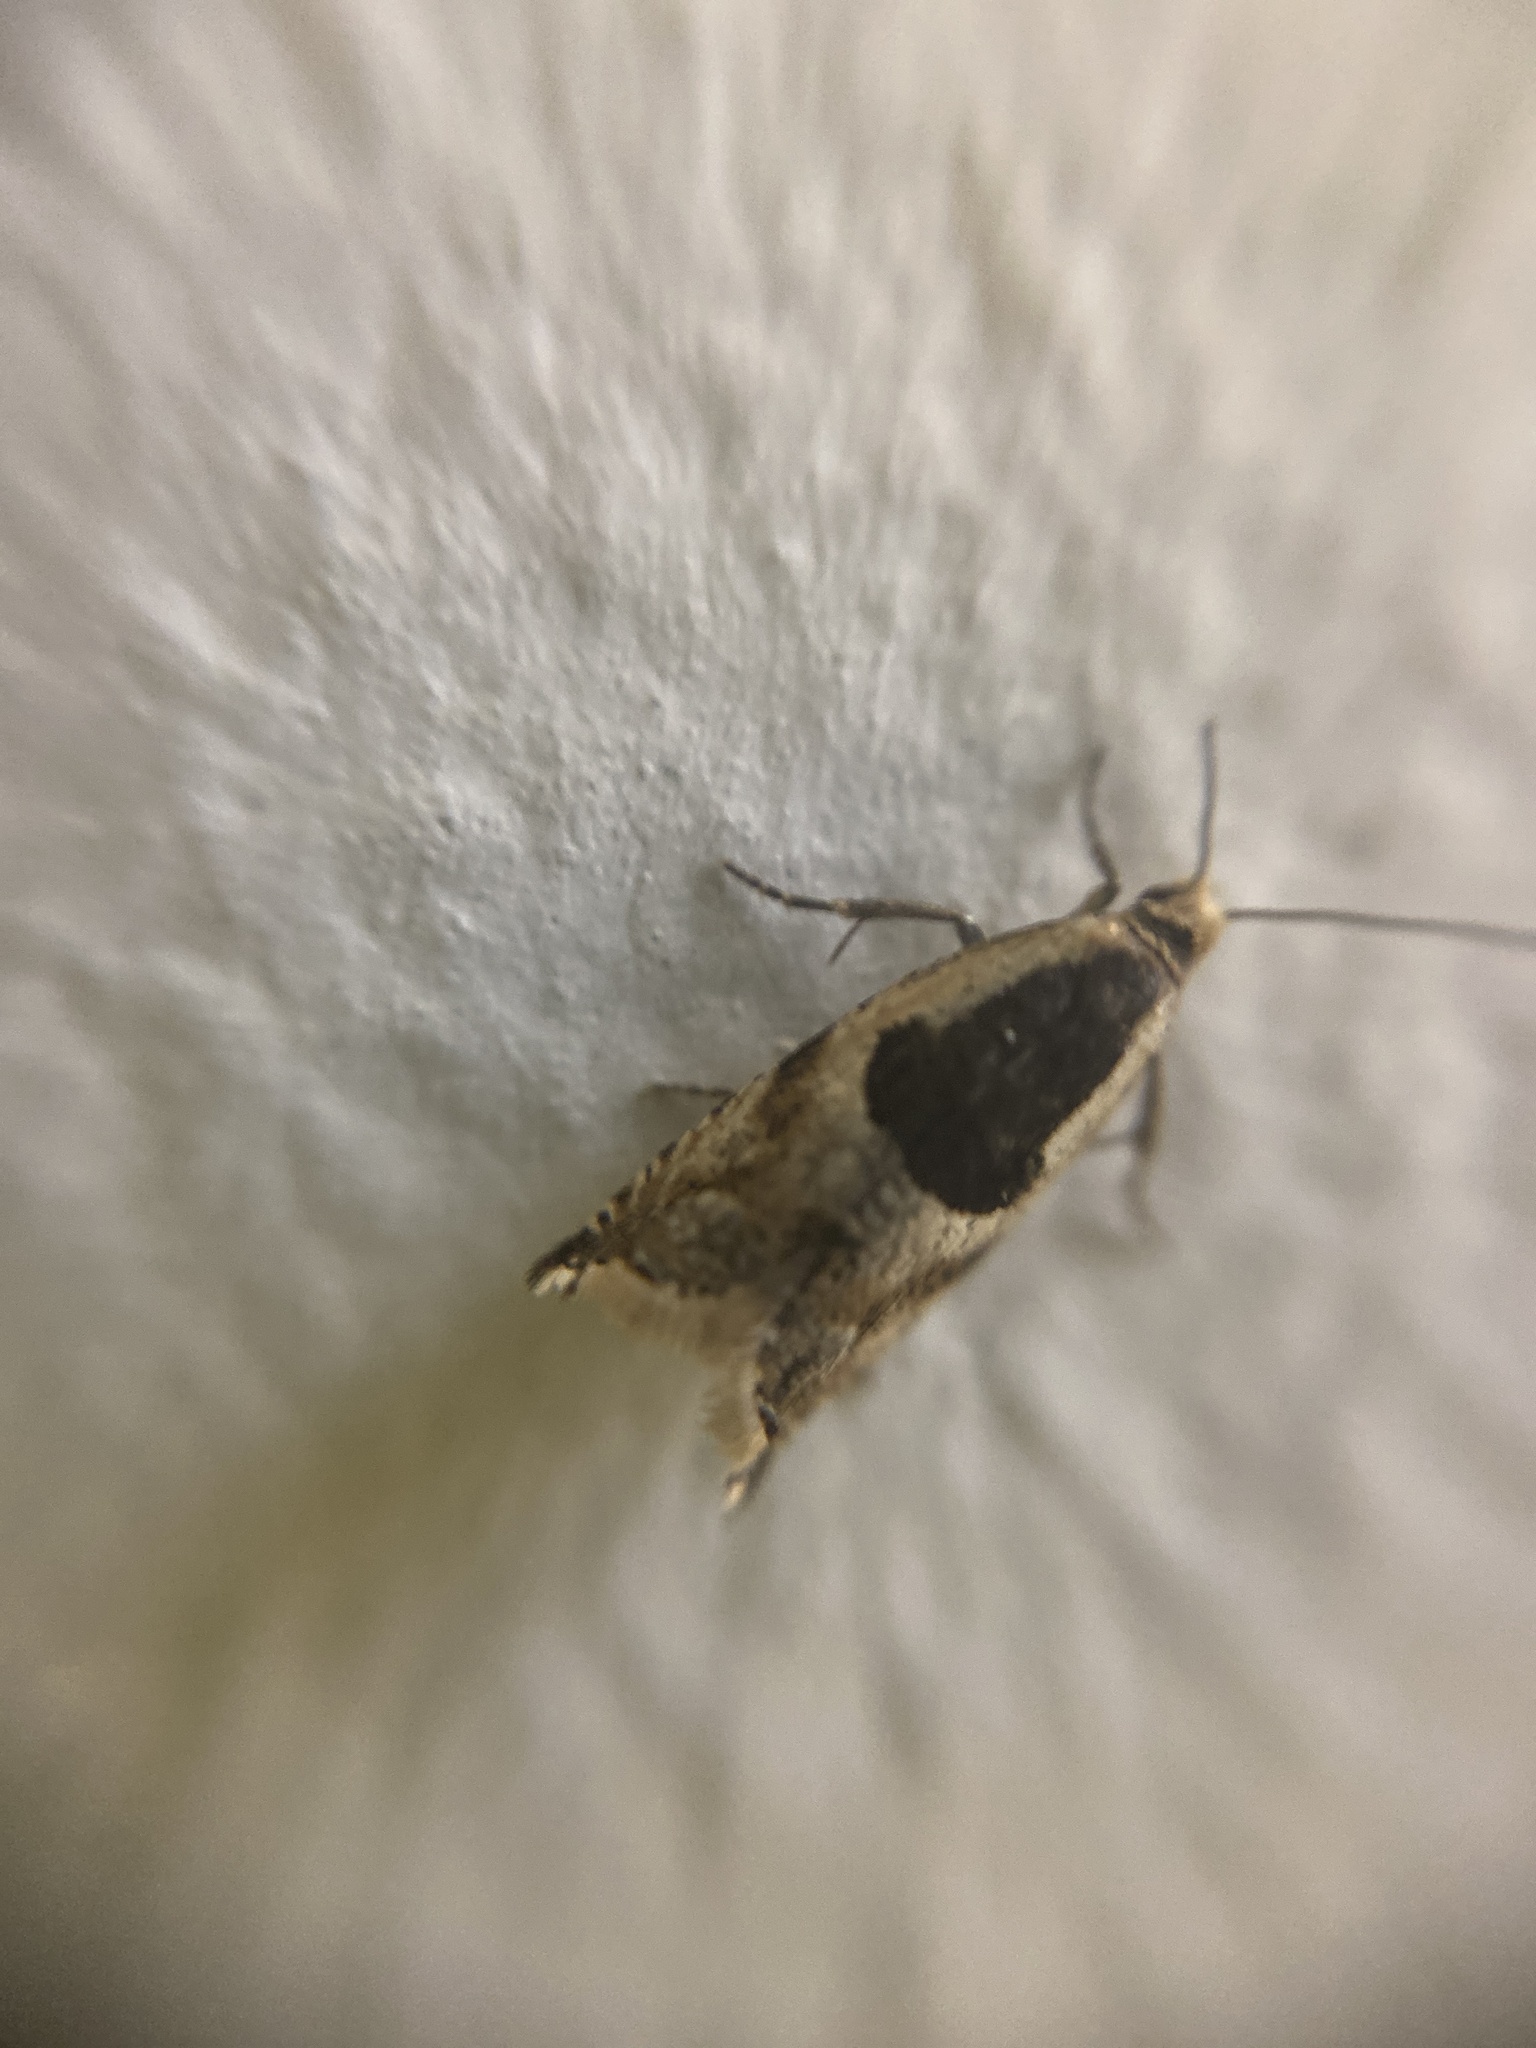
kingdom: Animalia
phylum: Arthropoda
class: Insecta
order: Lepidoptera
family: Tortricidae
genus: Ancylis
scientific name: Ancylis myrtillana
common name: Bilberry roller
